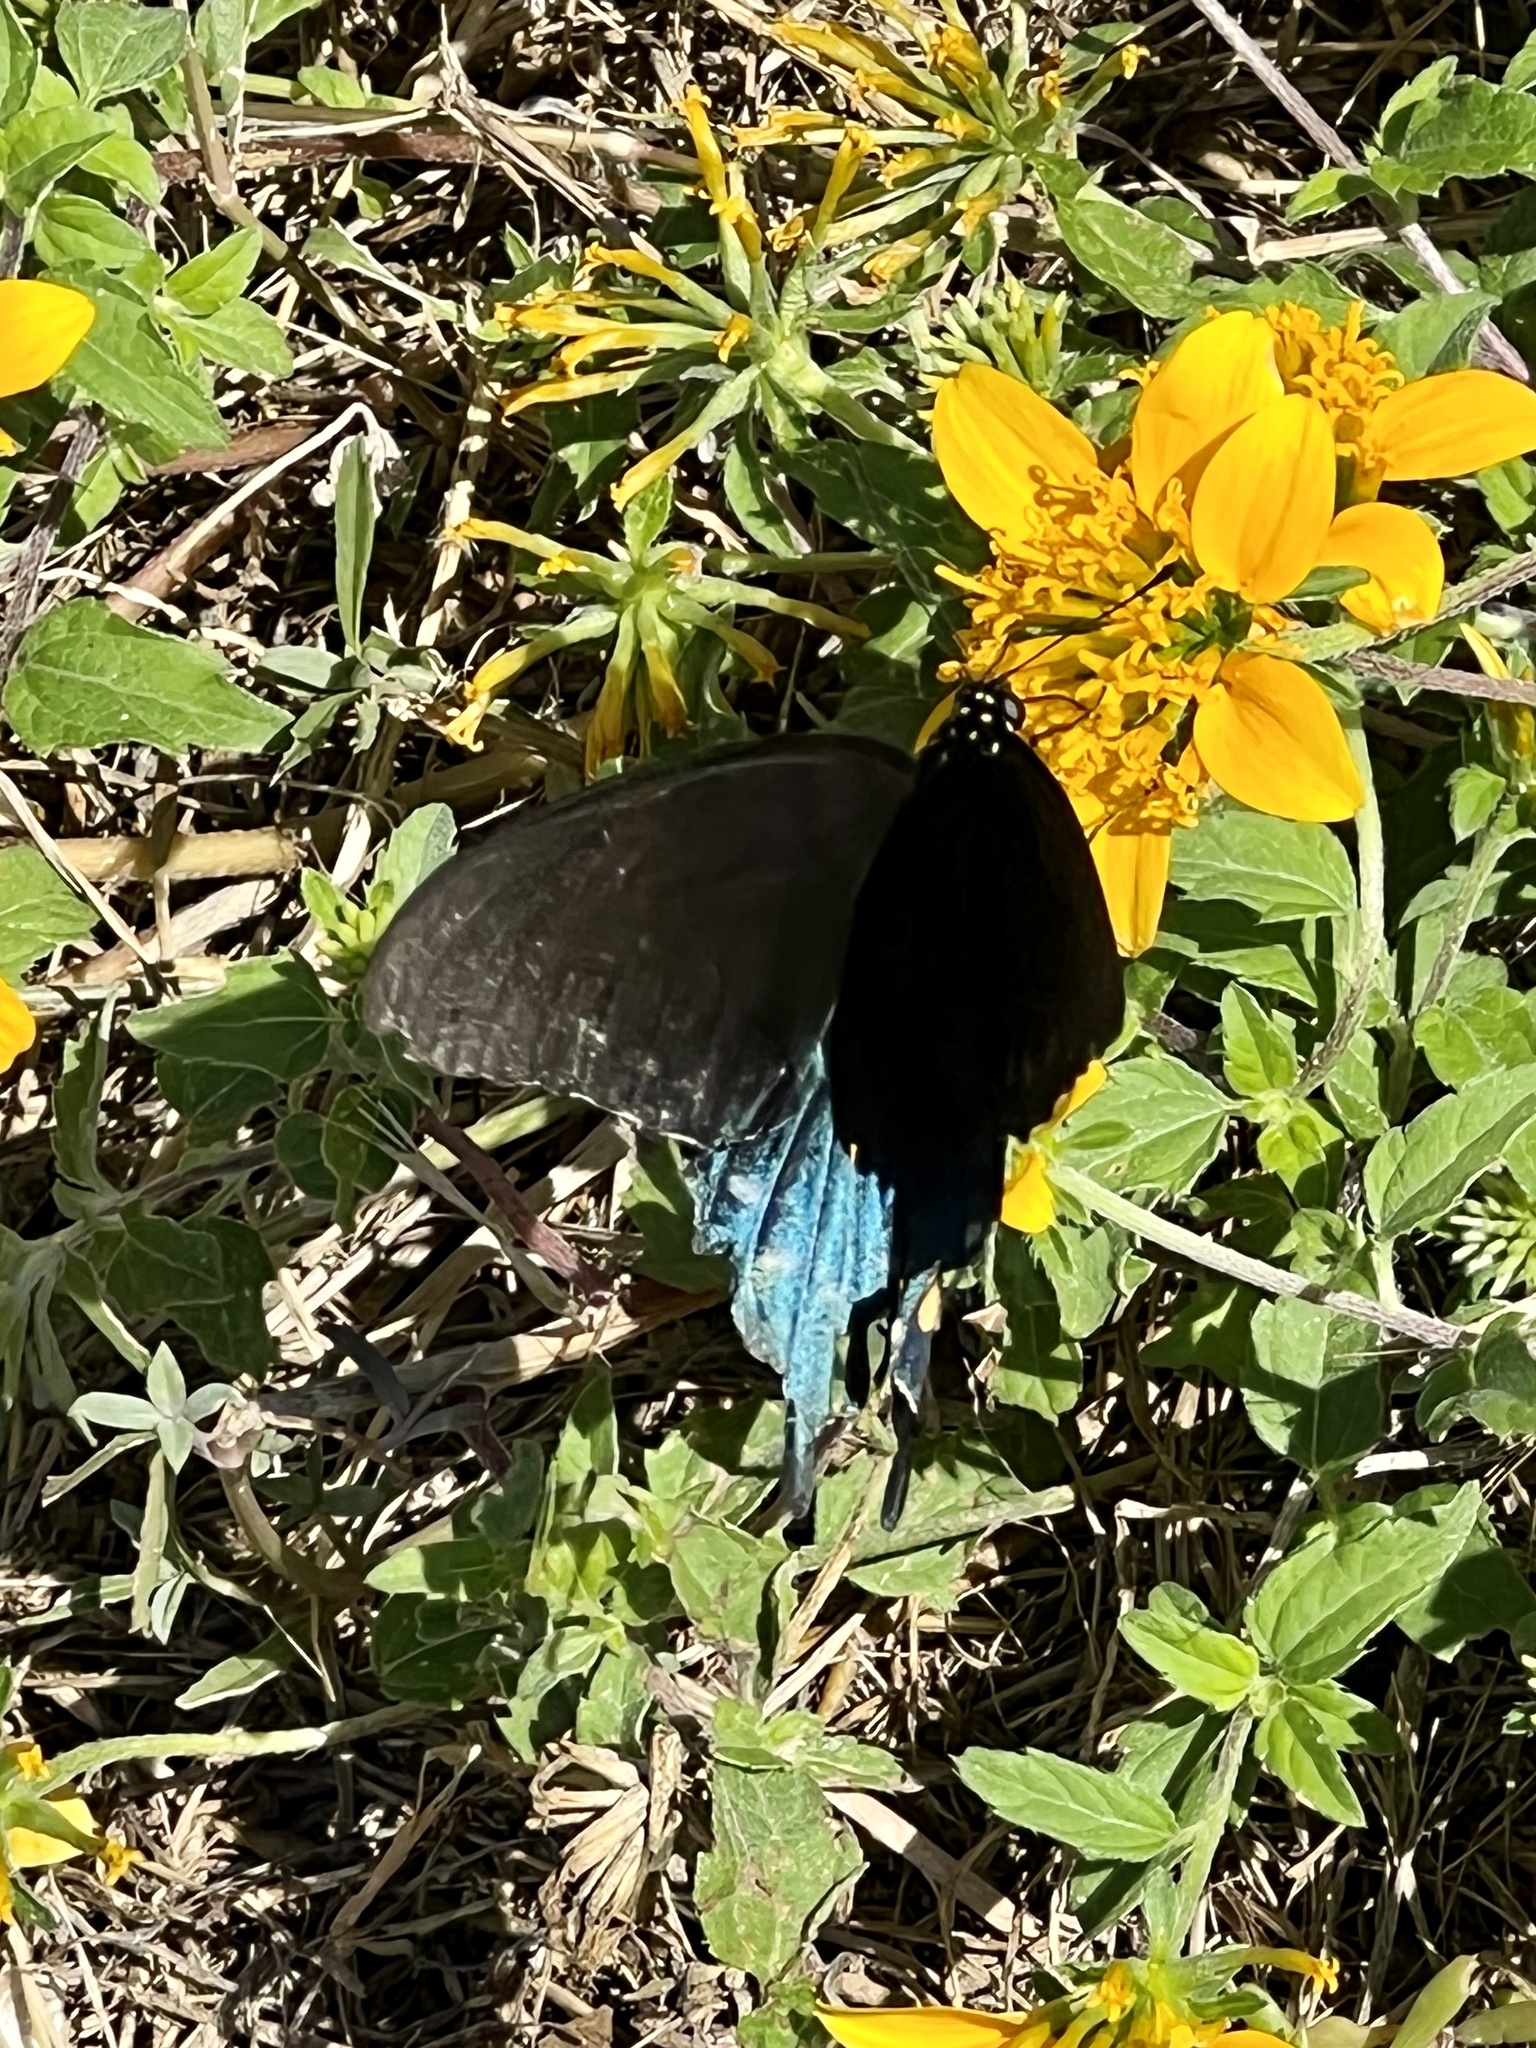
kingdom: Animalia
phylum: Arthropoda
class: Insecta
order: Lepidoptera
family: Papilionidae
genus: Battus
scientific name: Battus philenor
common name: Pipevine swallowtail
